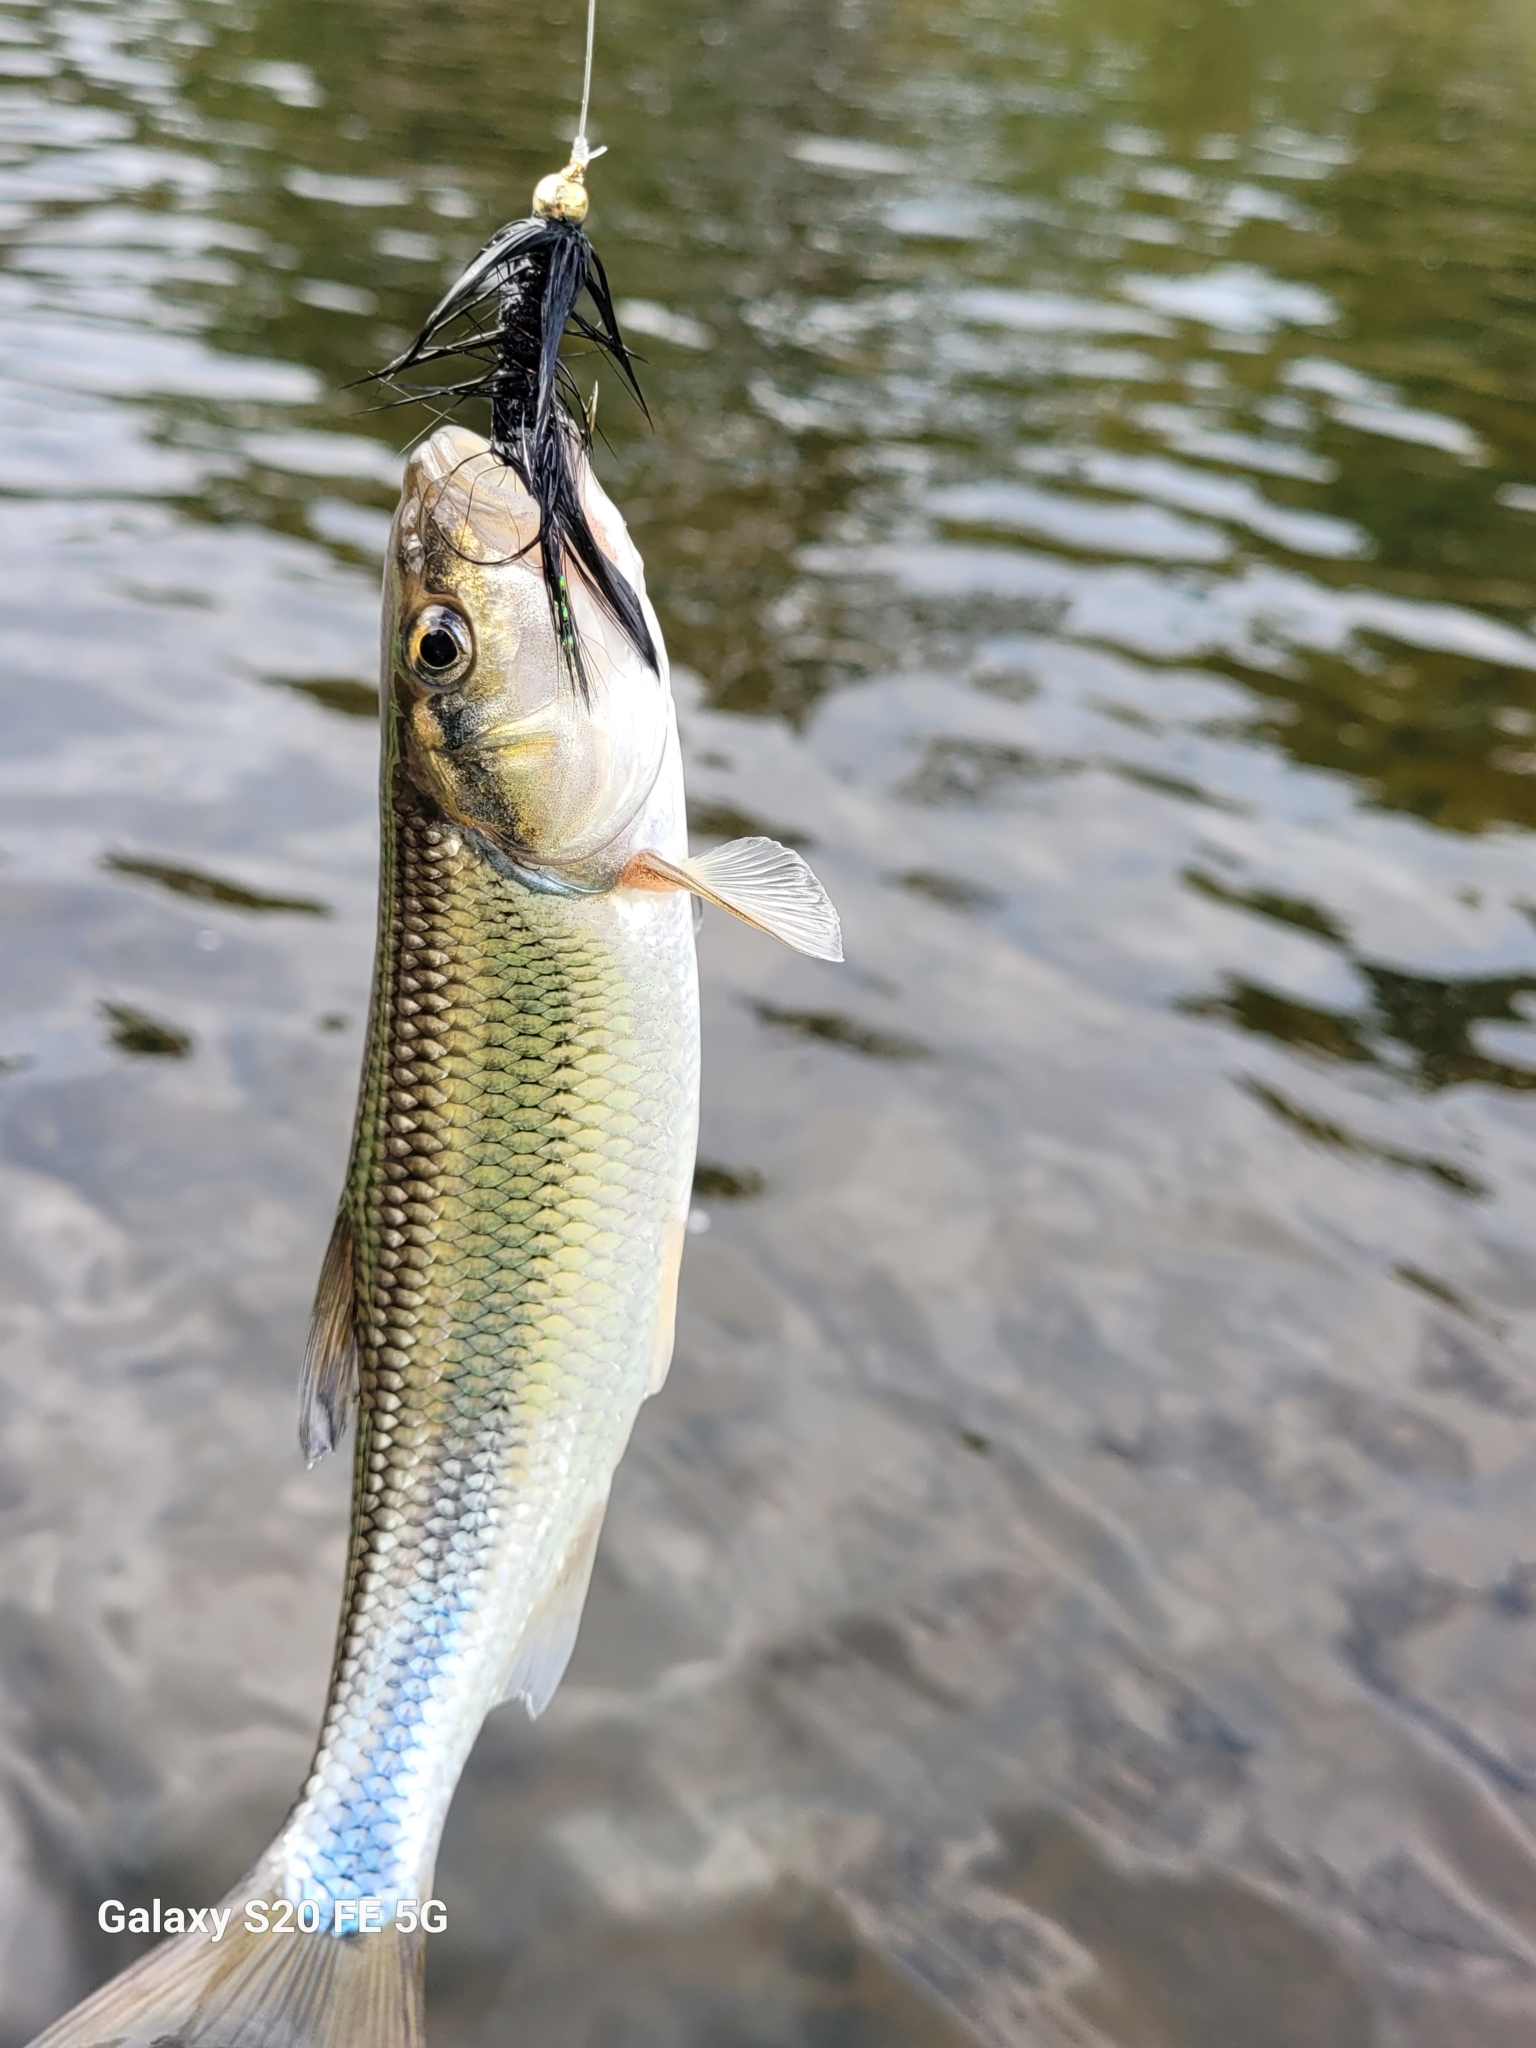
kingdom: Animalia
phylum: Chordata
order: Cypriniformes
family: Cyprinidae
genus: Semotilus
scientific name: Semotilus corporalis
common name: Fallfish
